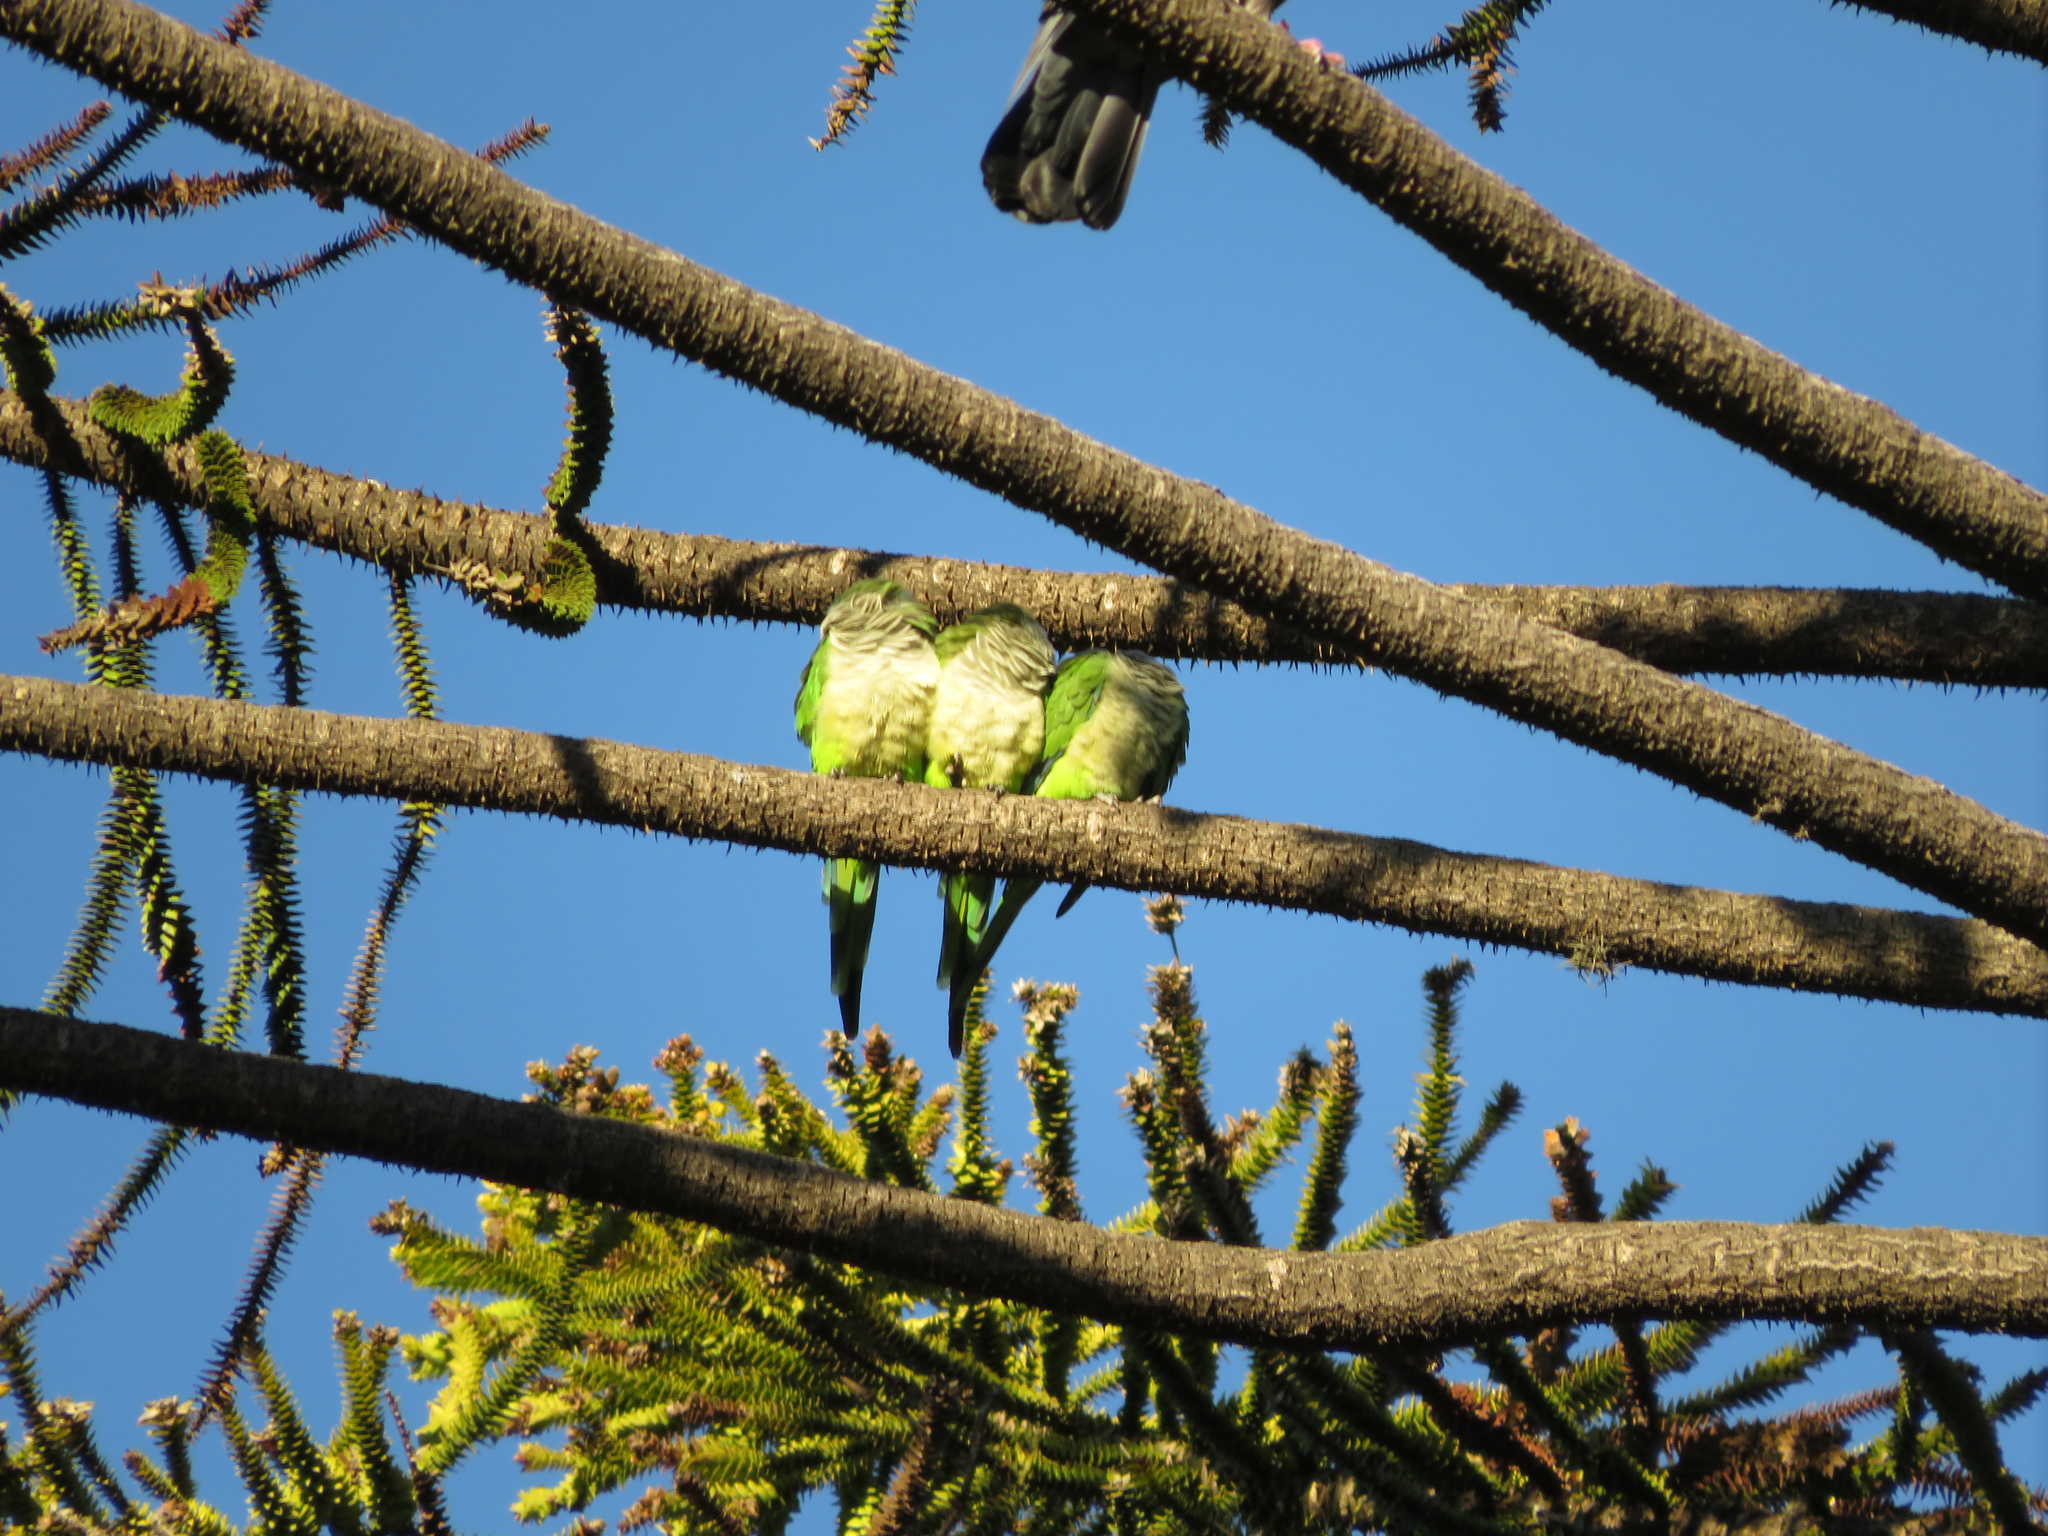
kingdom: Animalia
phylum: Chordata
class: Aves
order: Psittaciformes
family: Psittacidae
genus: Myiopsitta
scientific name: Myiopsitta monachus
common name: Monk parakeet
